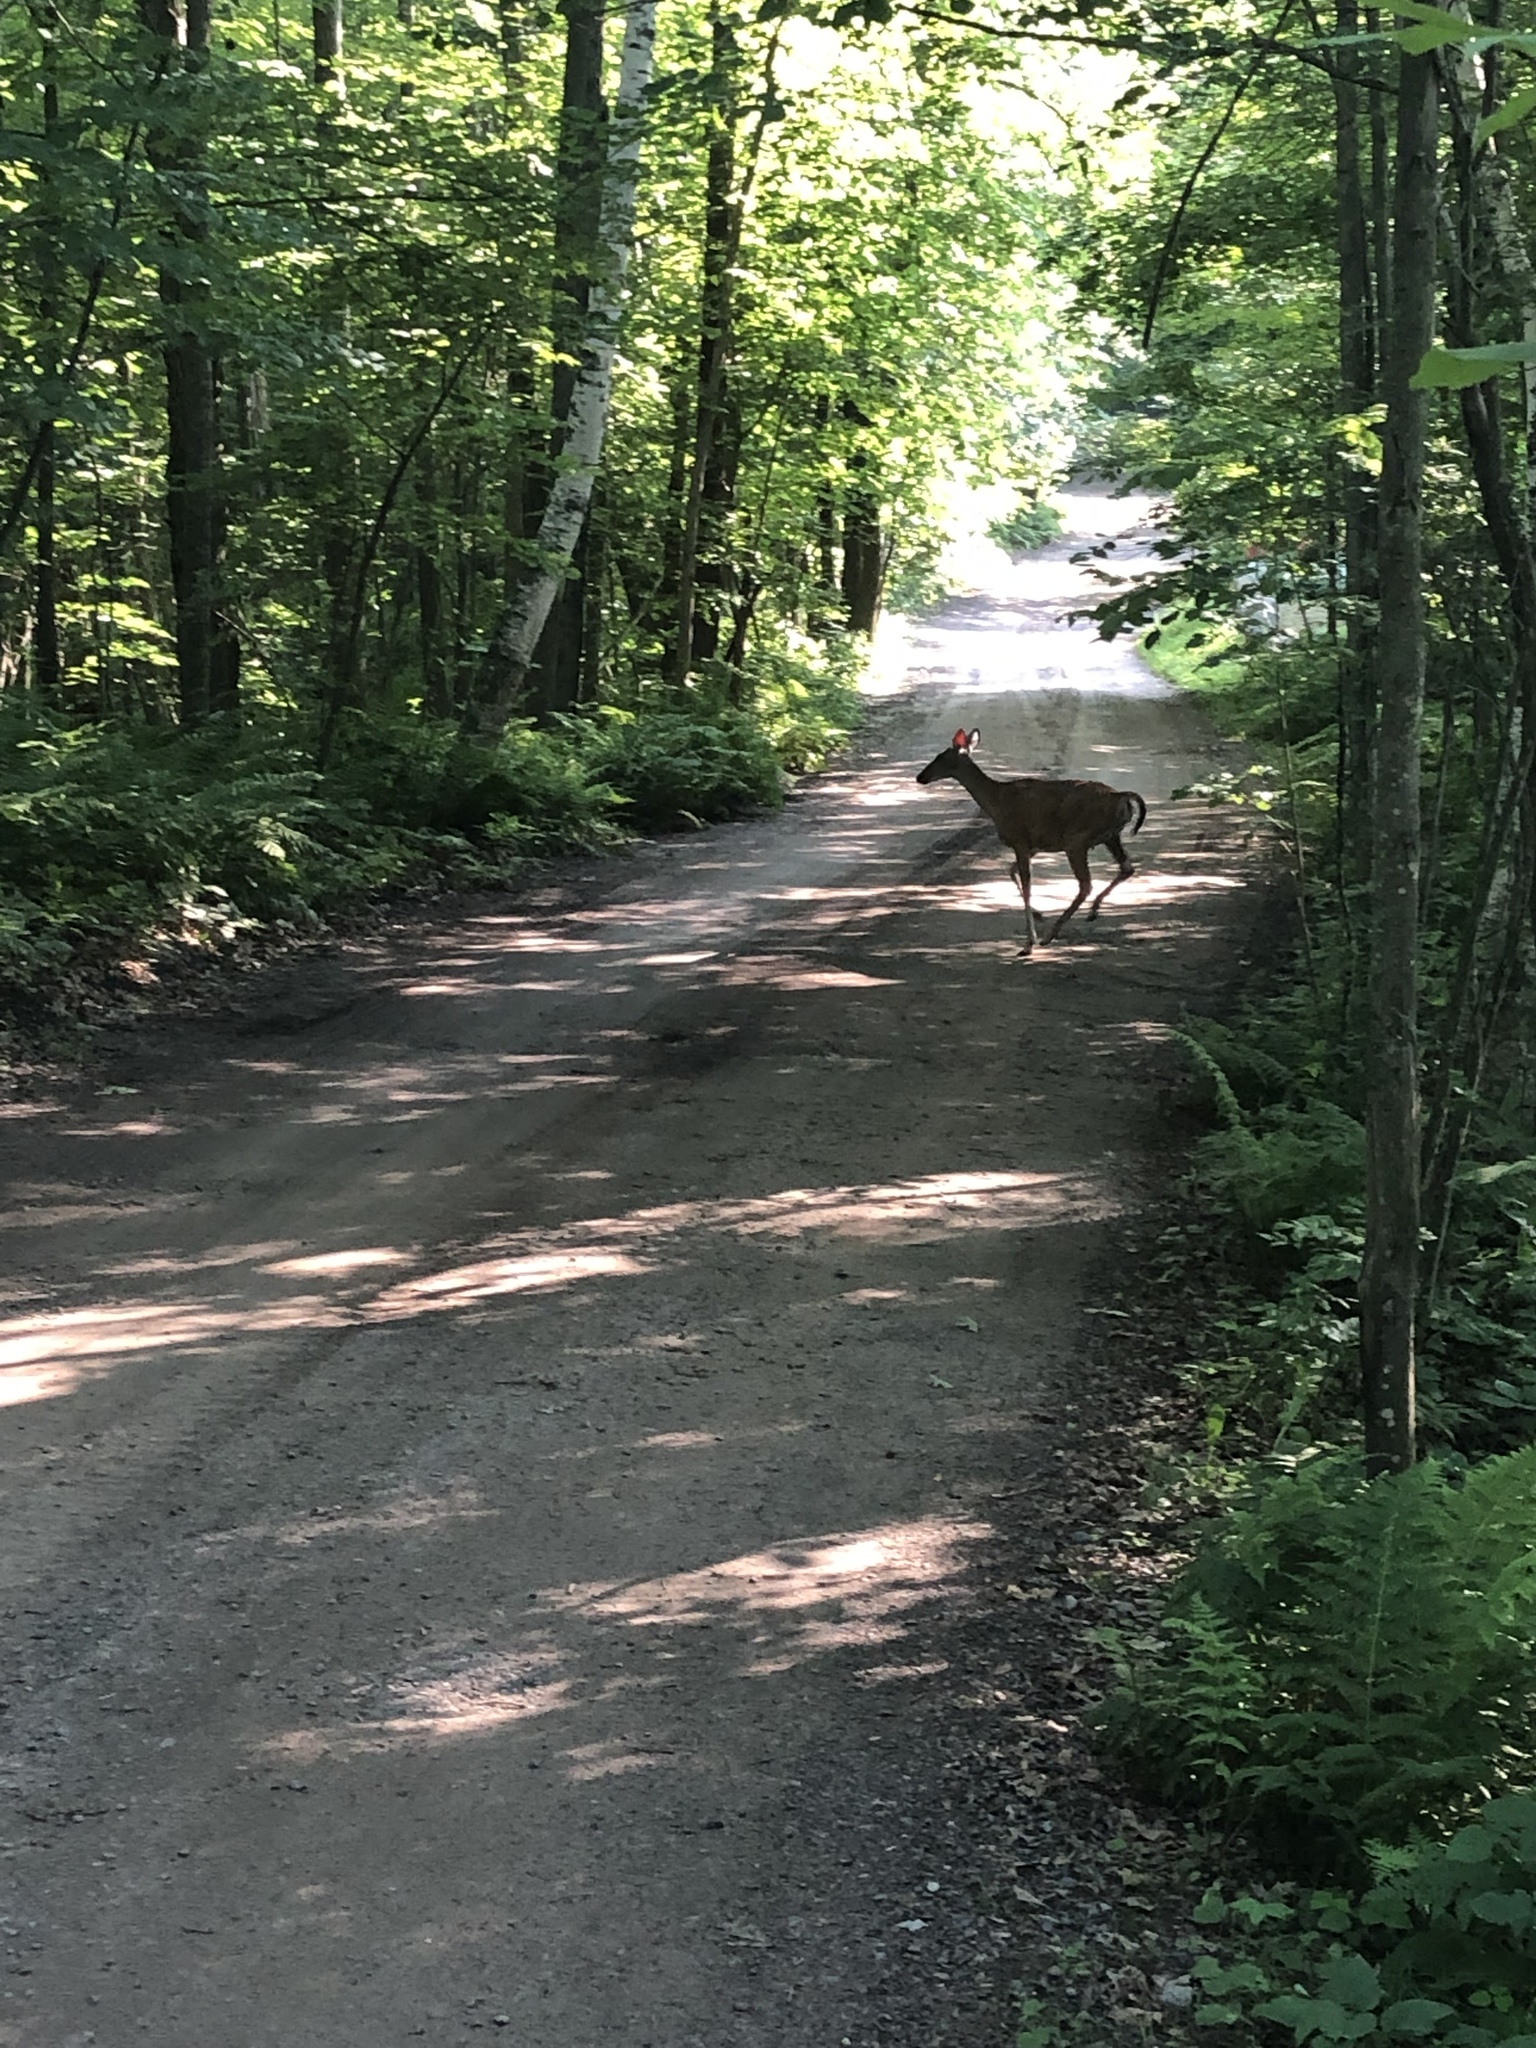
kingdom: Animalia
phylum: Chordata
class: Mammalia
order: Artiodactyla
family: Cervidae
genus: Odocoileus
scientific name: Odocoileus virginianus
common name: White-tailed deer
